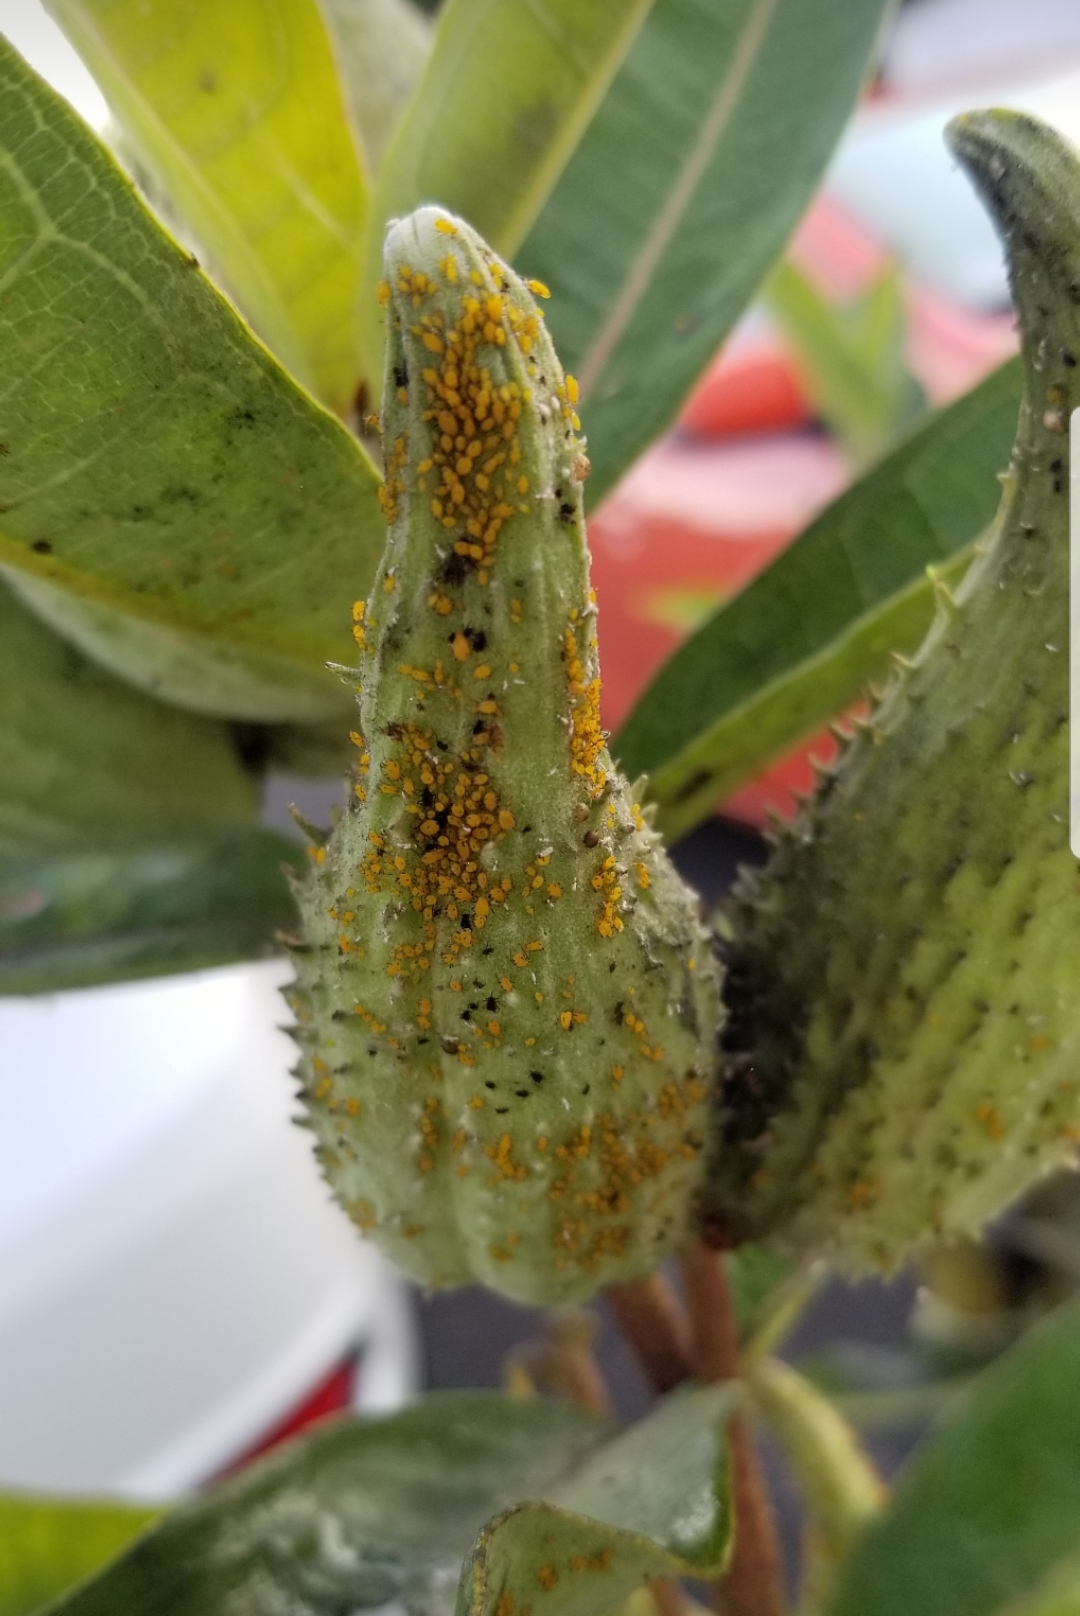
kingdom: Animalia
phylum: Arthropoda
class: Insecta
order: Hemiptera
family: Aphididae
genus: Aphis
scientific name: Aphis nerii
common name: Oleander aphid
